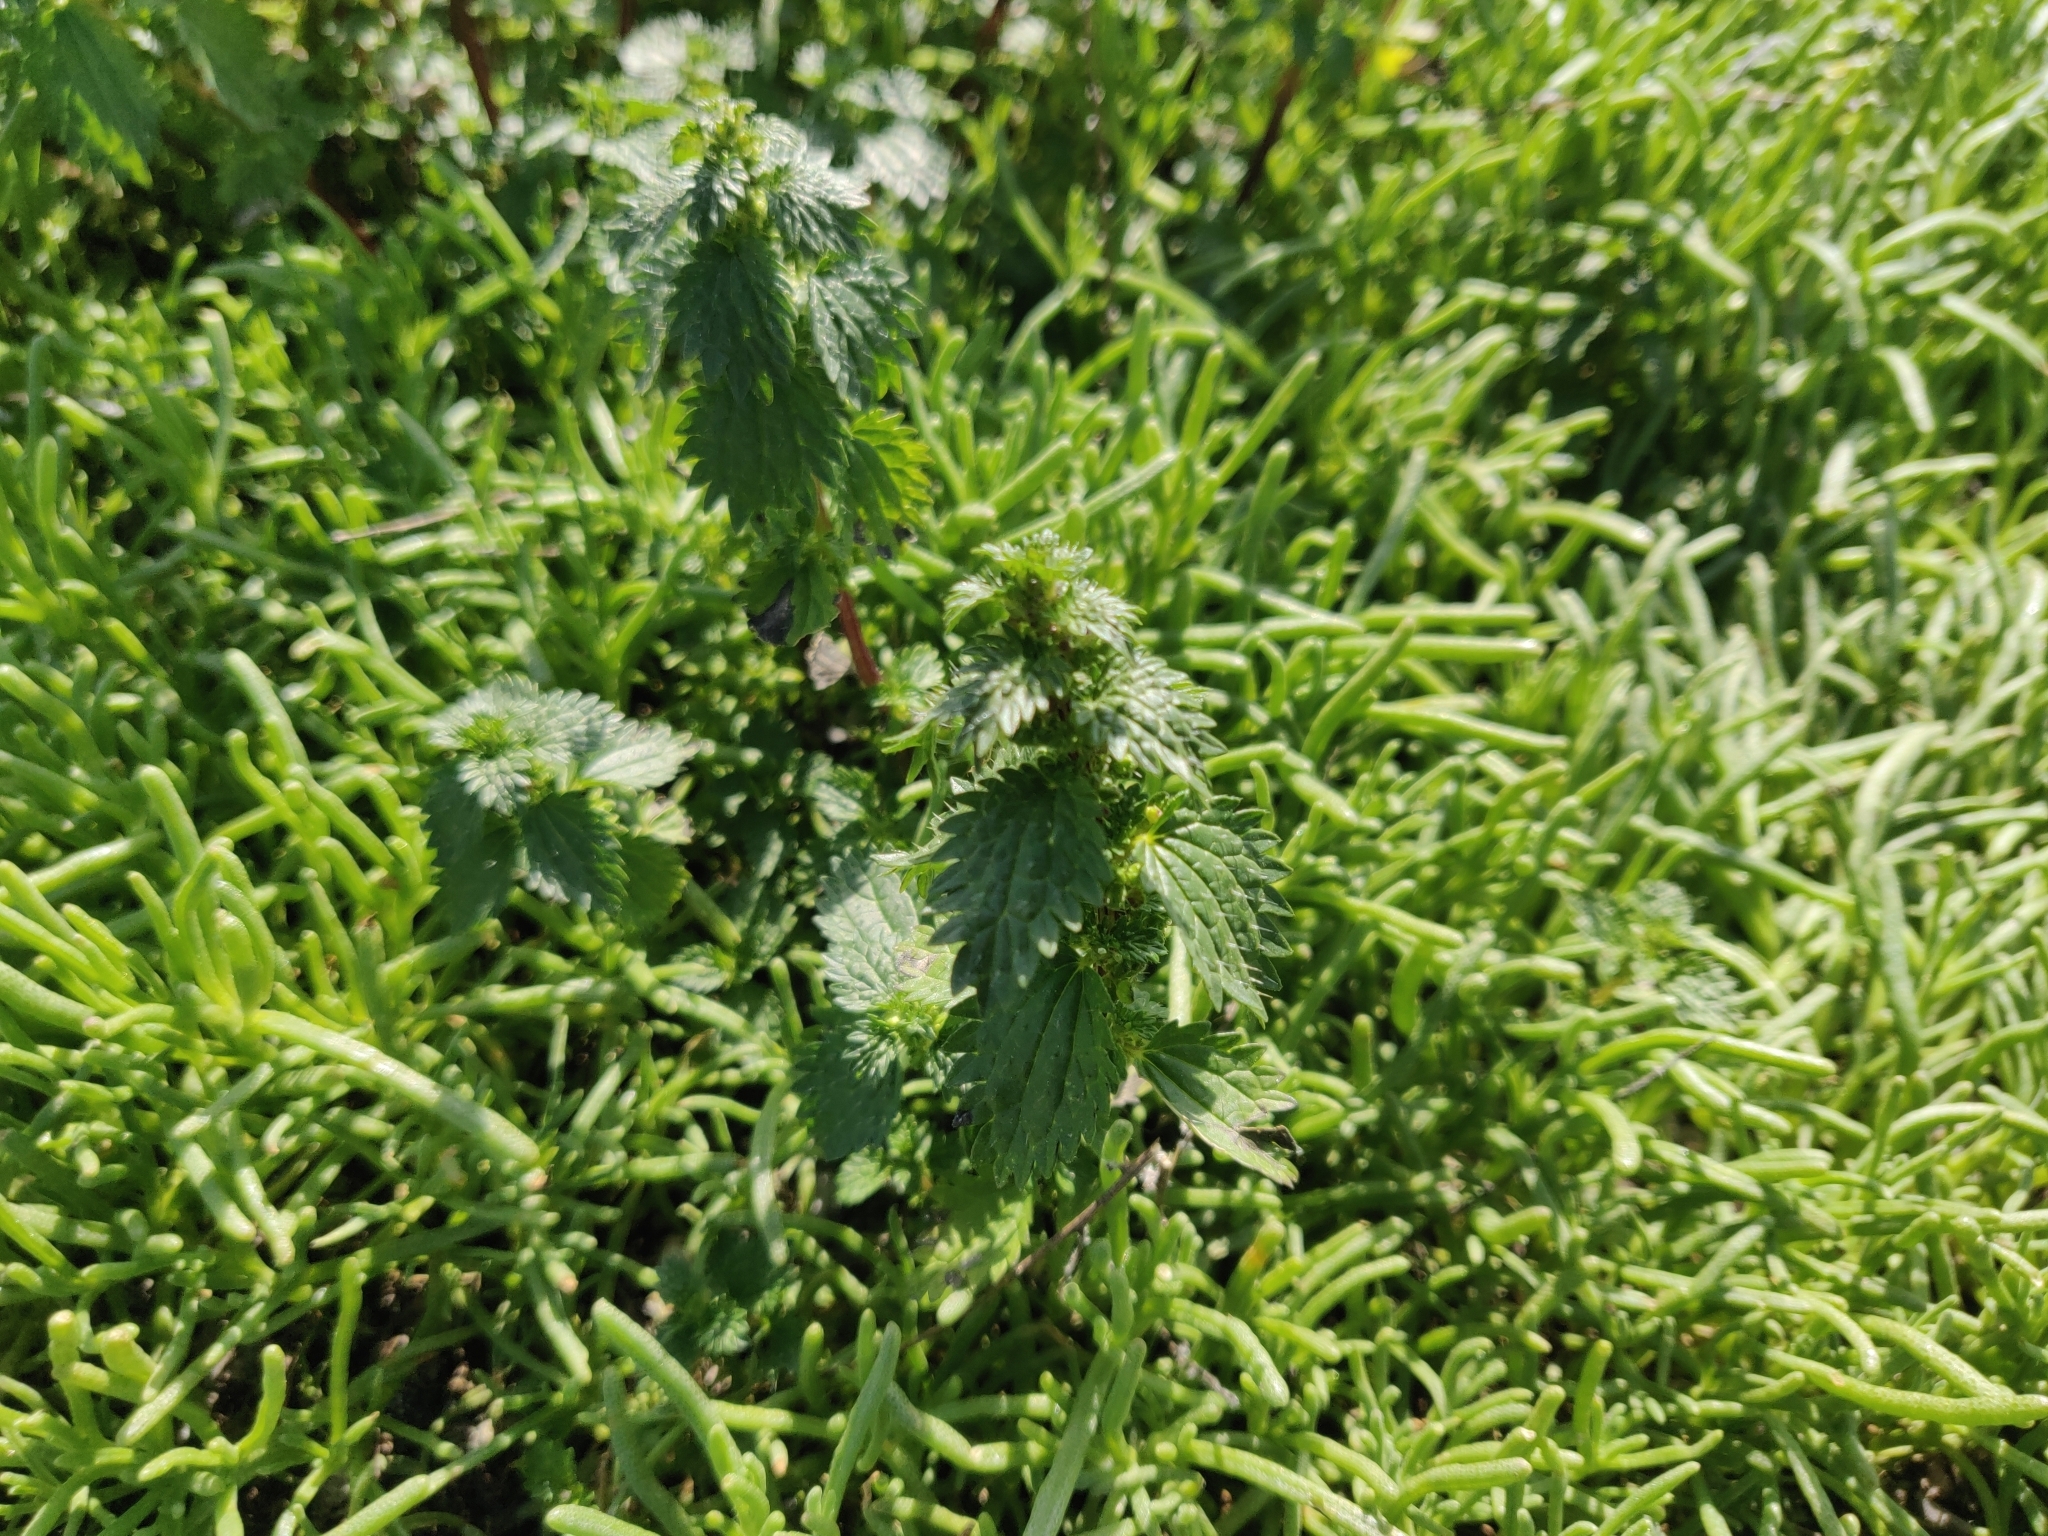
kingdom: Plantae
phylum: Tracheophyta
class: Magnoliopsida
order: Rosales
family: Urticaceae
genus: Urtica
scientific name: Urtica urens
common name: Dwarf nettle
